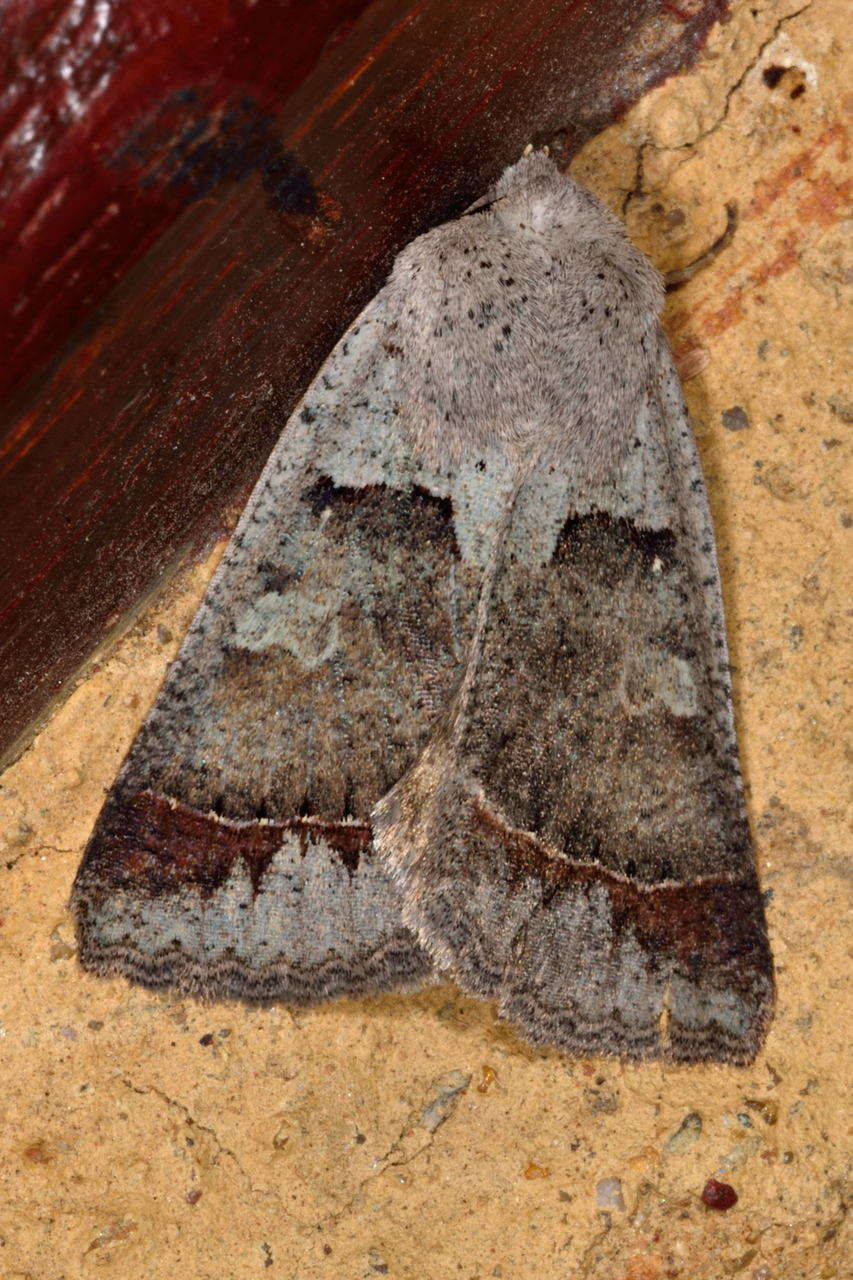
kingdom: Animalia
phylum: Arthropoda
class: Insecta
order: Lepidoptera
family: Erebidae
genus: Pantydia
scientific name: Pantydia sparsa
